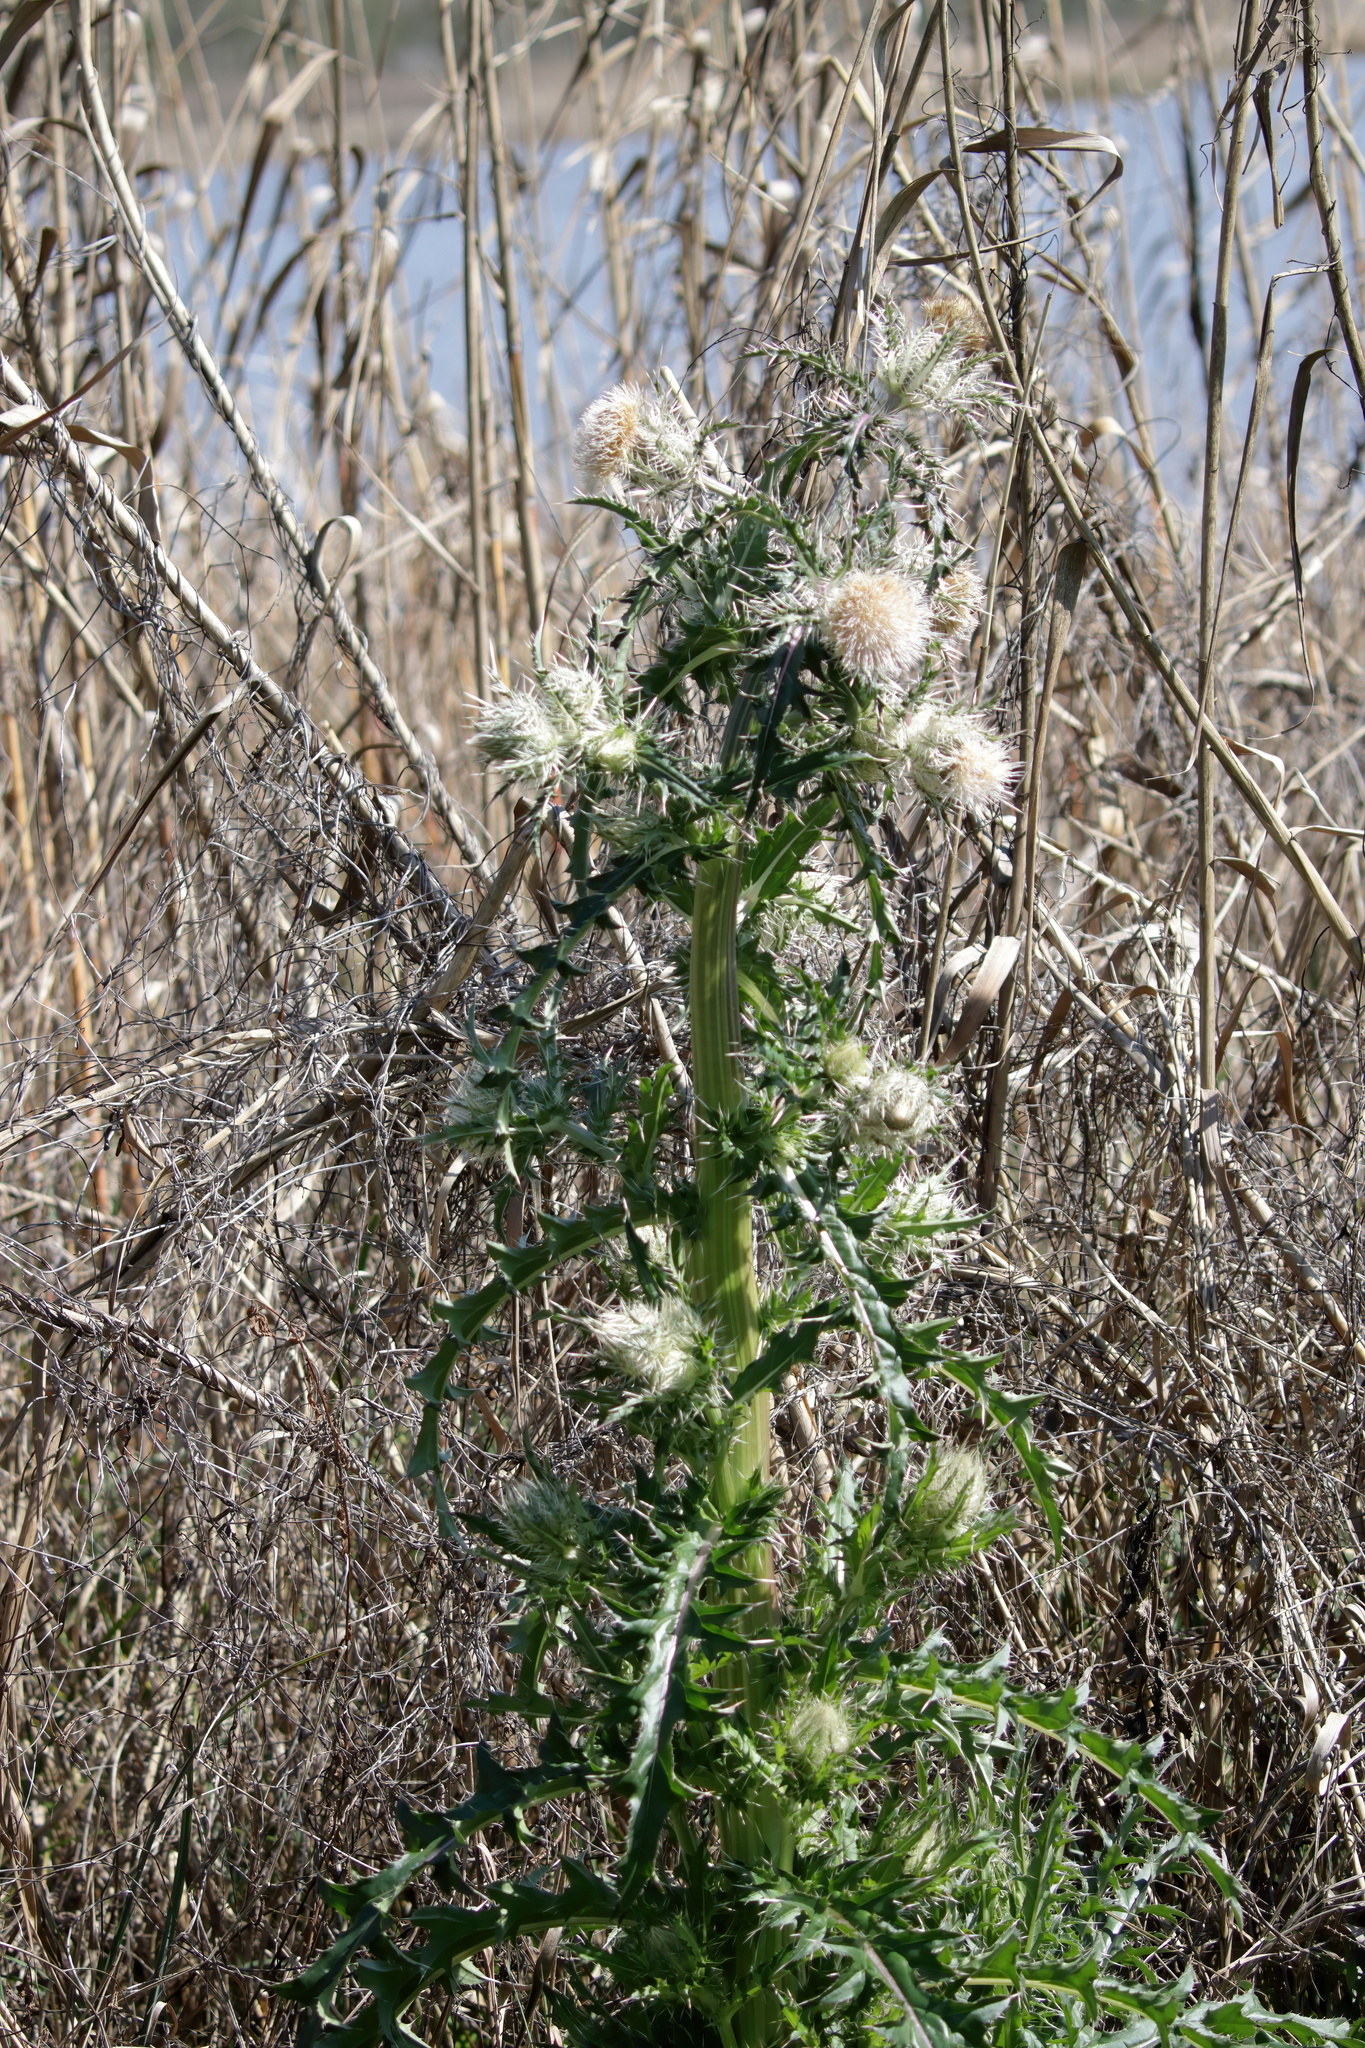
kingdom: Plantae
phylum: Tracheophyta
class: Magnoliopsida
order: Asterales
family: Asteraceae
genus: Cirsium
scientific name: Cirsium horridulum
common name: Bristly thistle
